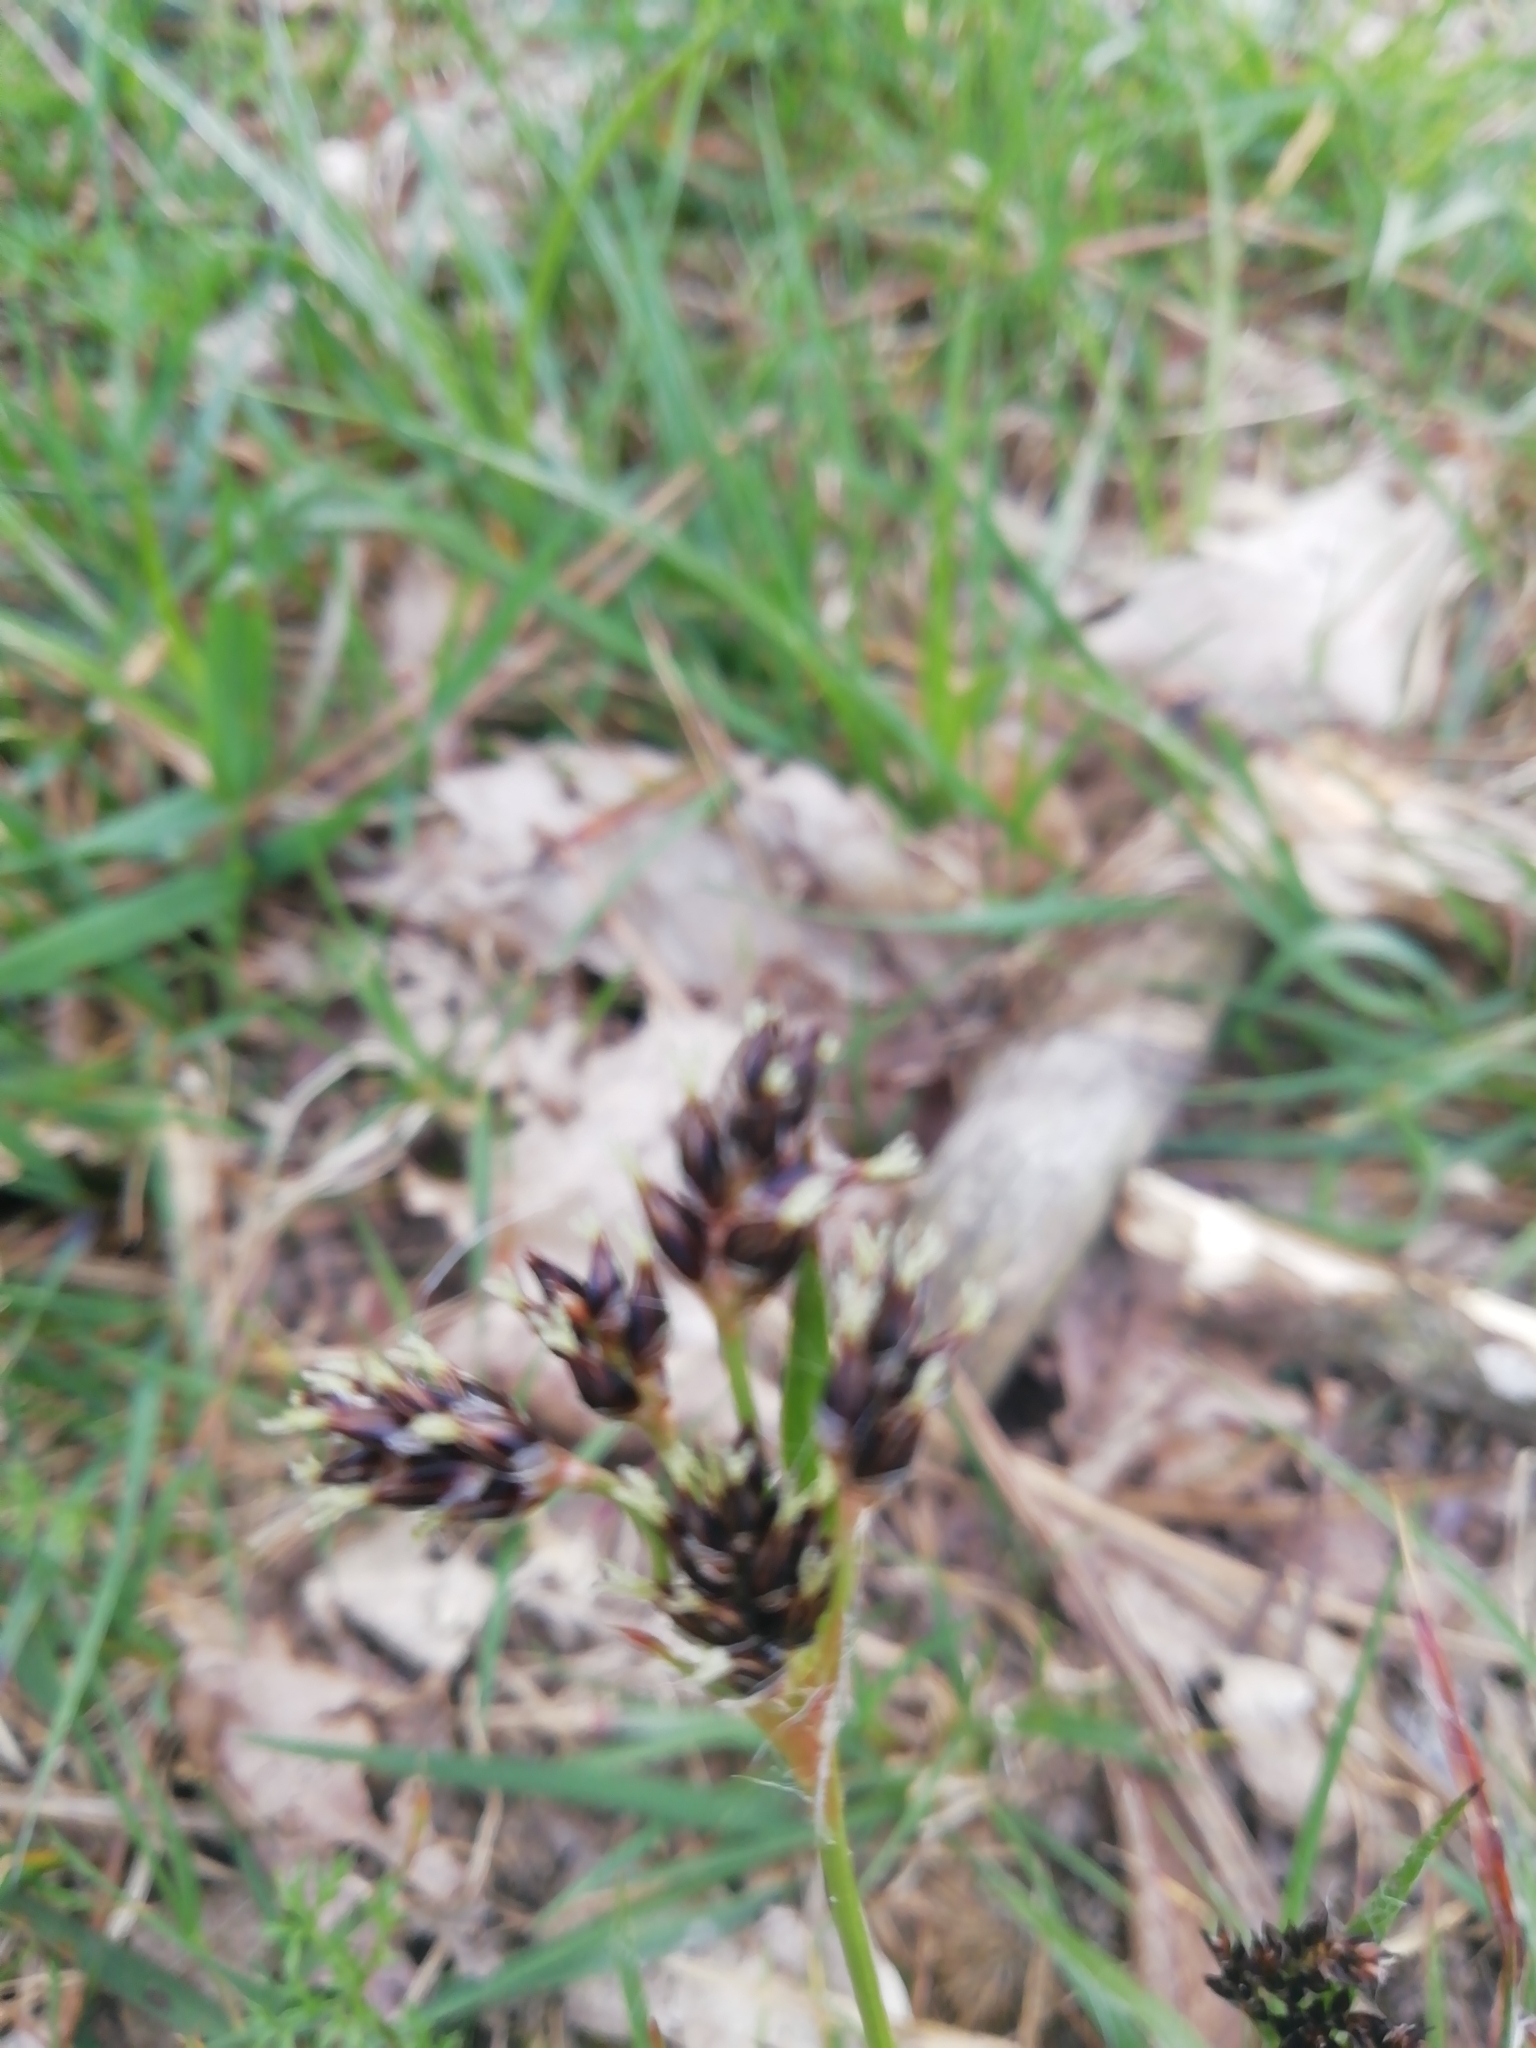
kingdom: Plantae
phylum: Tracheophyta
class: Liliopsida
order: Poales
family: Juncaceae
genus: Luzula
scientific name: Luzula campestris
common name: Field wood-rush
